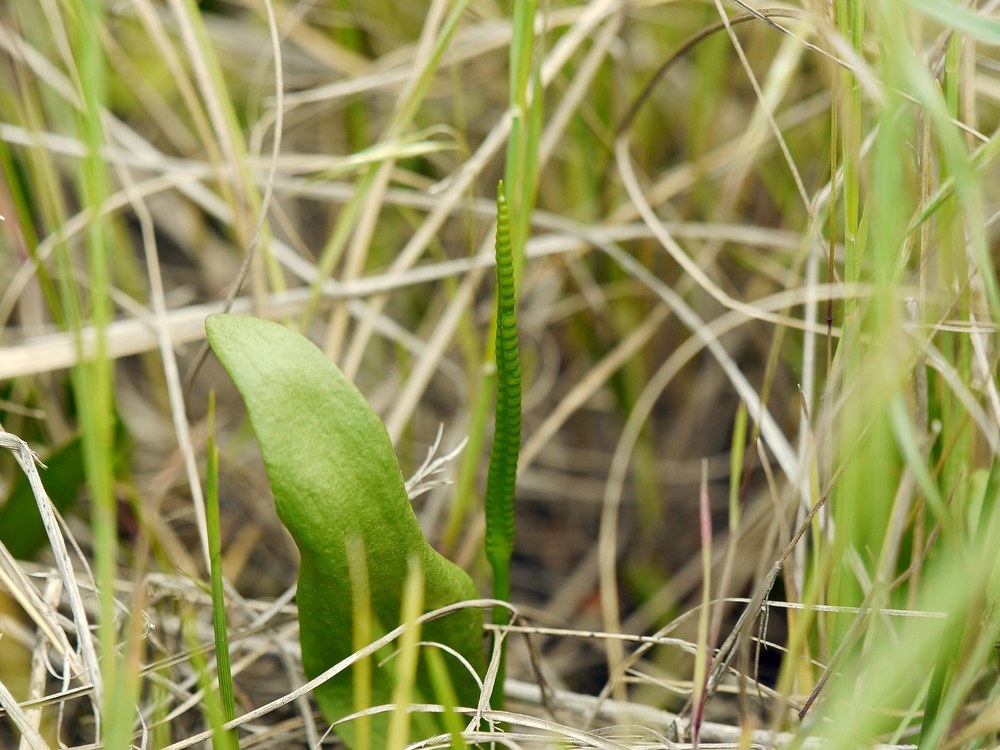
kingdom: Plantae
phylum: Tracheophyta
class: Polypodiopsida
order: Ophioglossales
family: Ophioglossaceae
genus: Ophioglossum
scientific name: Ophioglossum vulgatum
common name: Adder's-tongue
